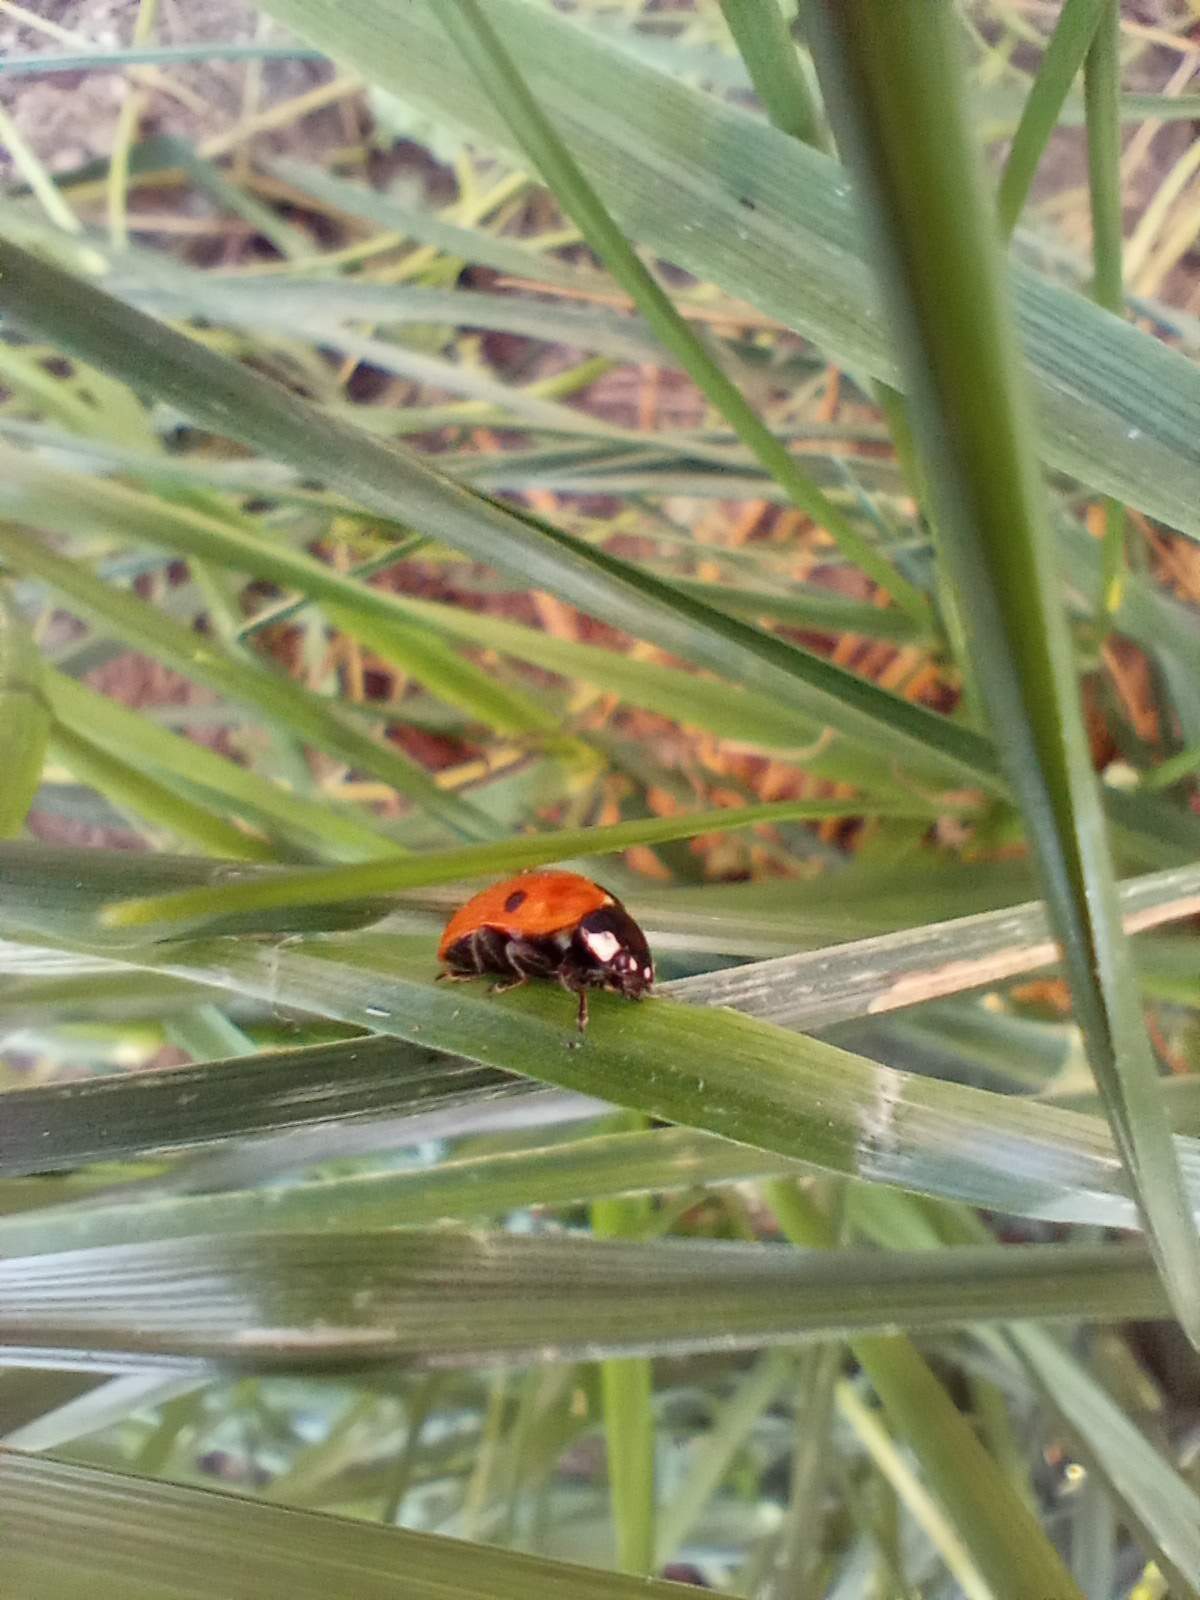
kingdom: Animalia
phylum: Arthropoda
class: Insecta
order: Coleoptera
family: Coccinellidae
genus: Coccinella
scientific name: Coccinella septempunctata
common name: Sevenspotted lady beetle
